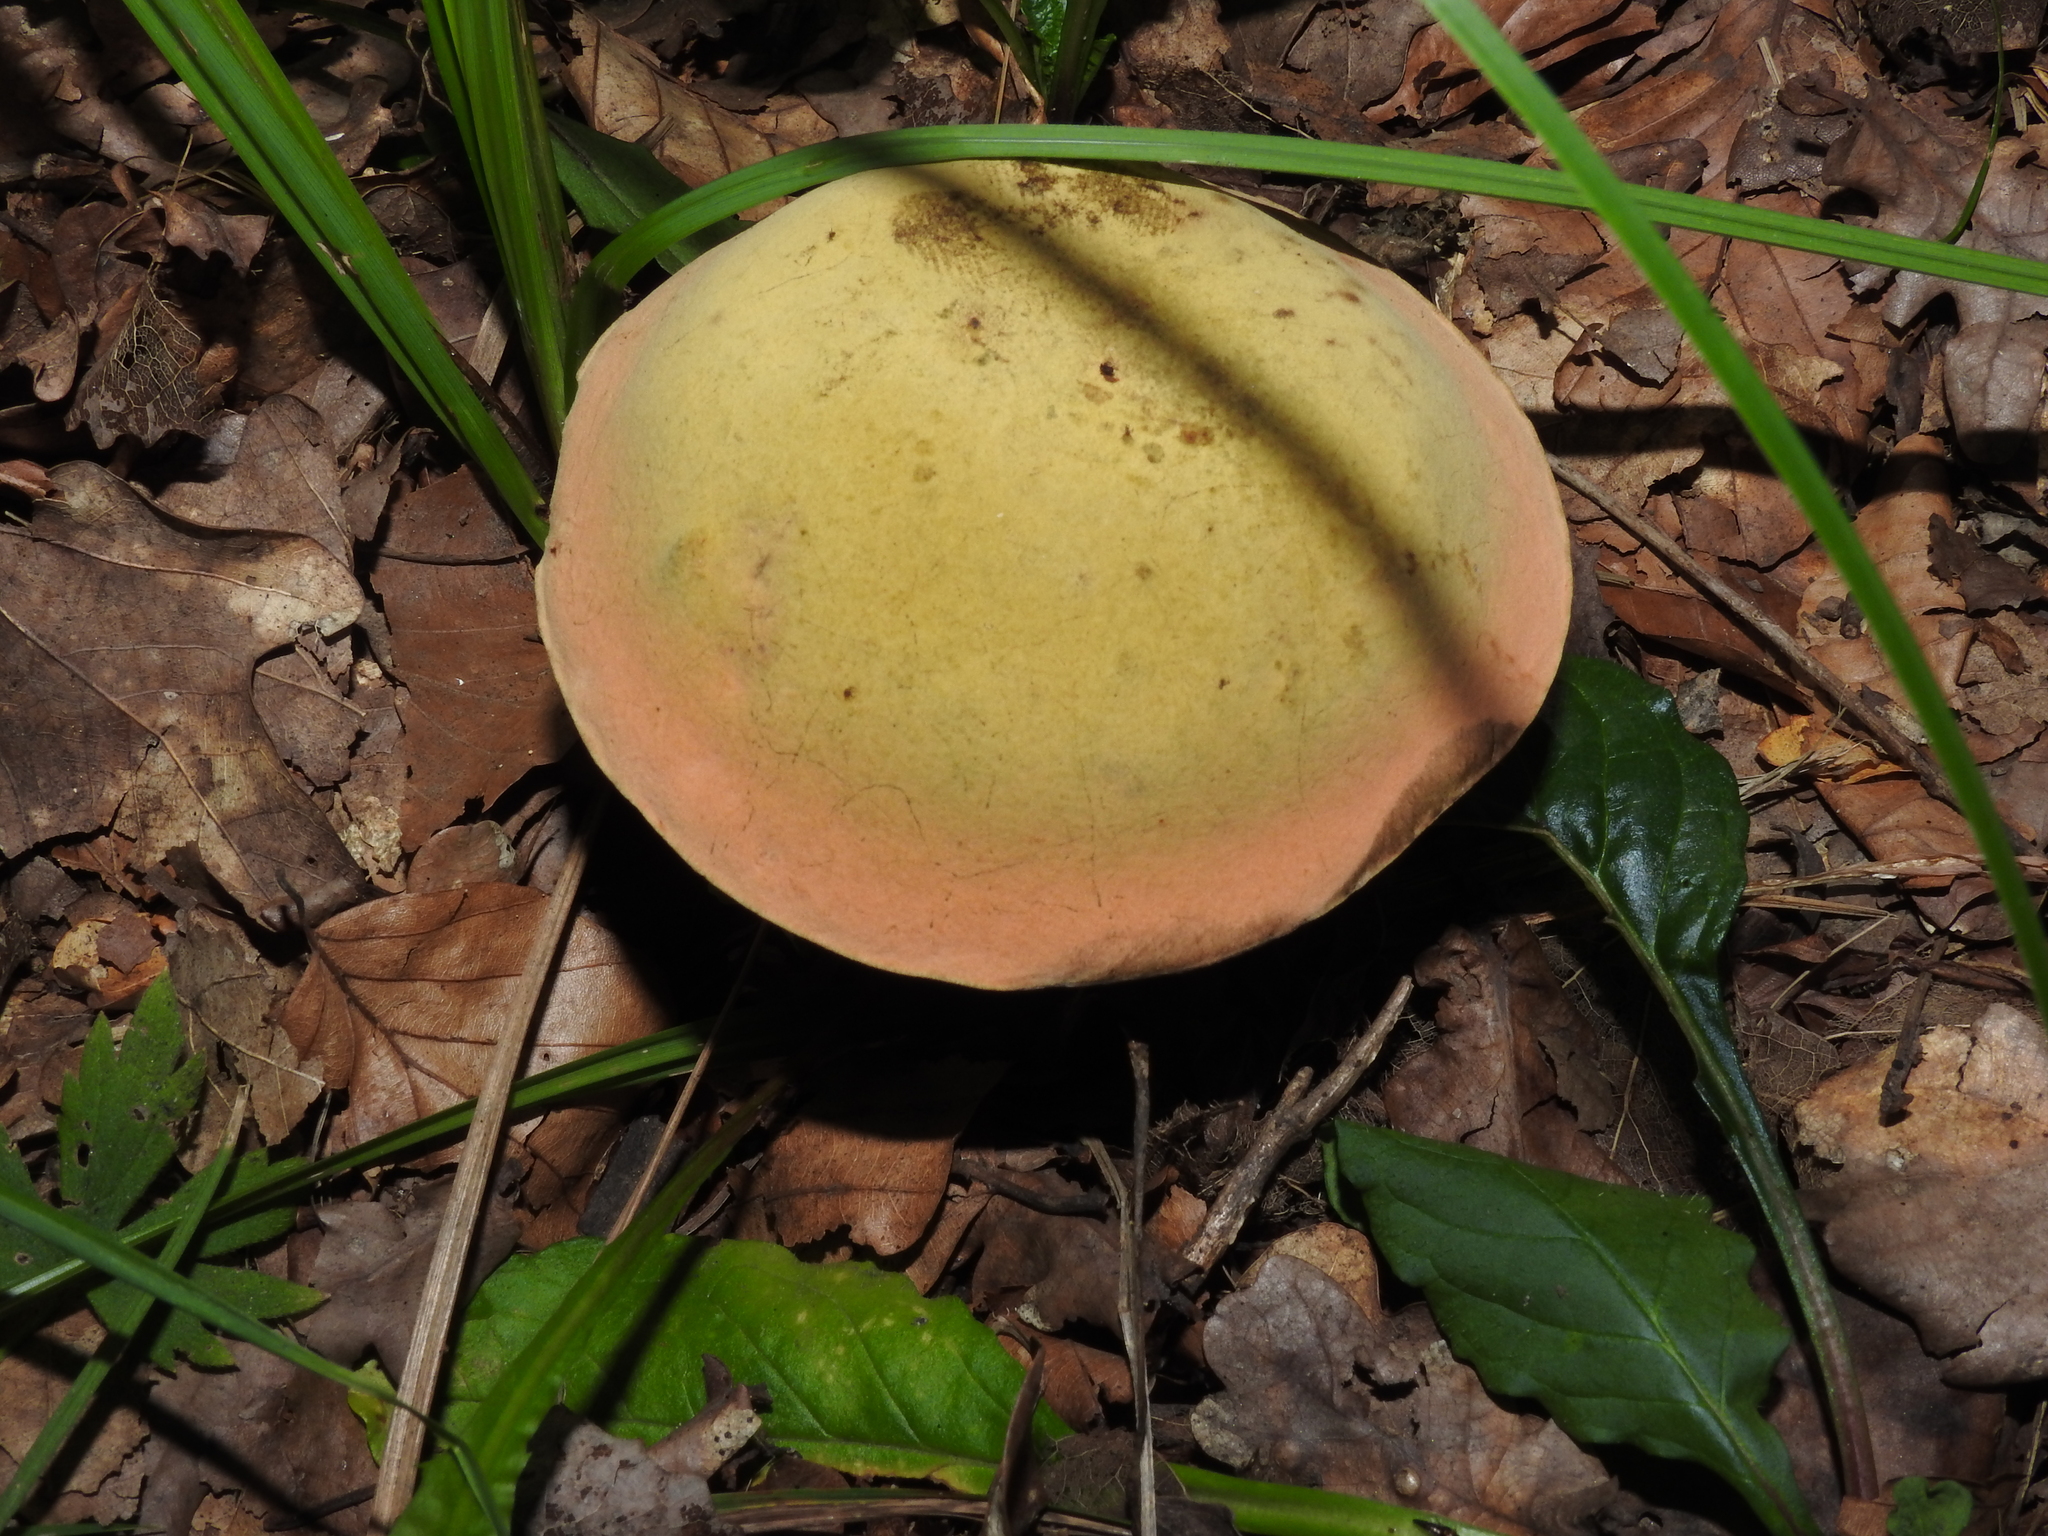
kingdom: Fungi
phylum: Basidiomycota
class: Agaricomycetes
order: Boletales
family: Boletaceae
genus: Suillellus
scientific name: Suillellus luridus
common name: Lurid bolete
